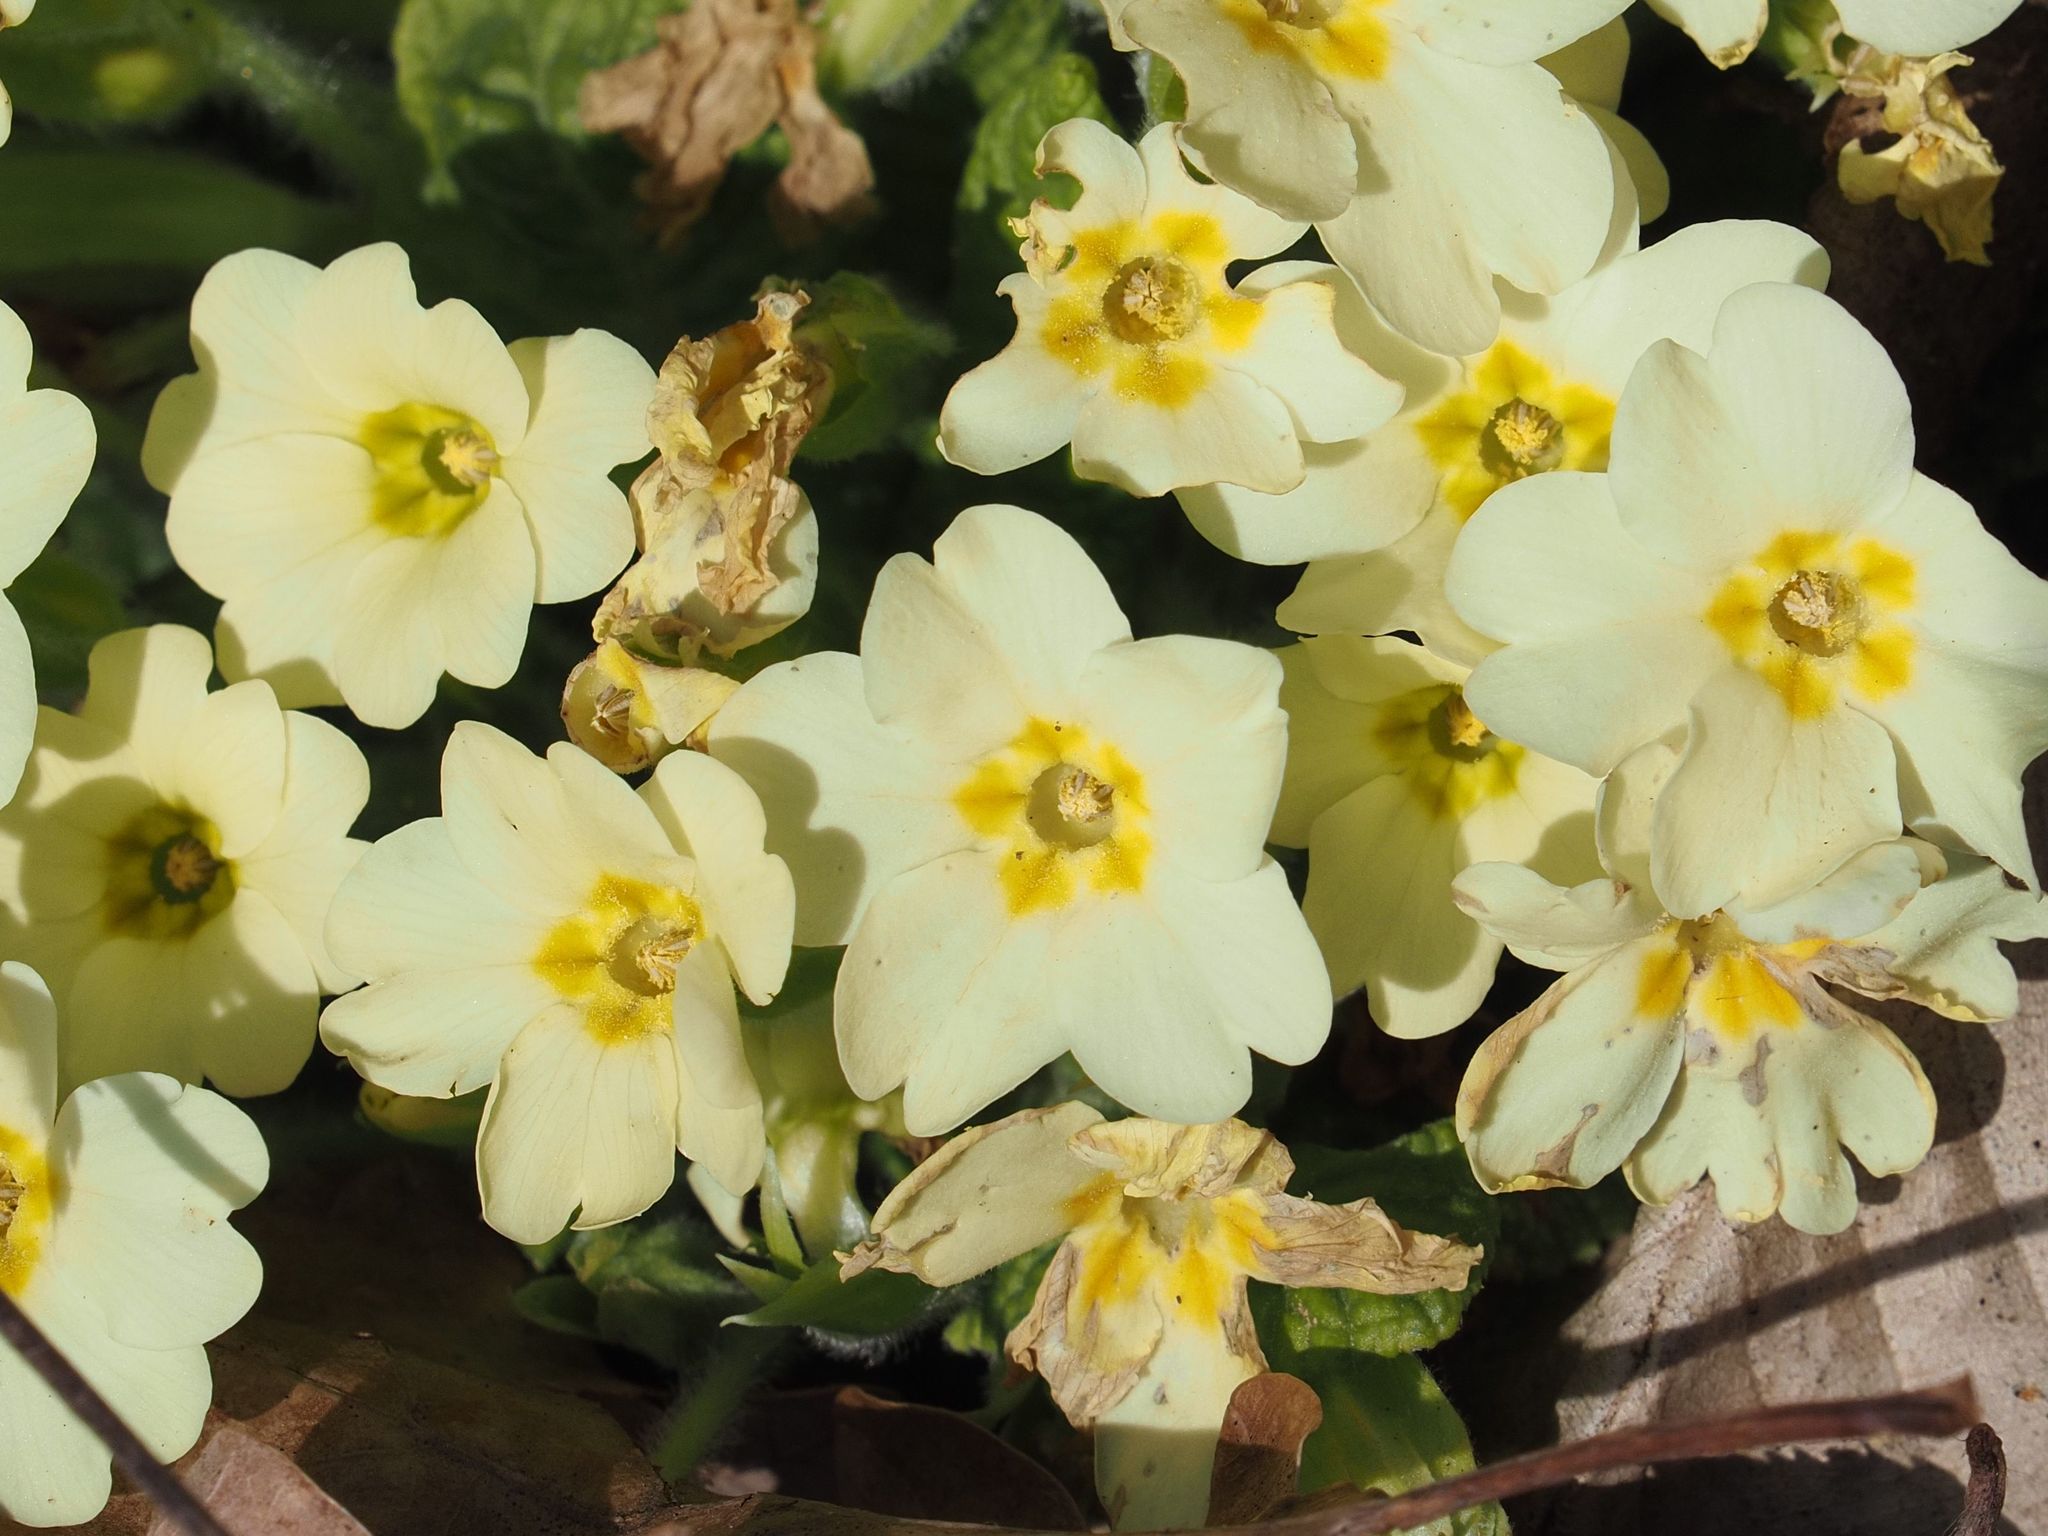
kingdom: Plantae
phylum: Tracheophyta
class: Magnoliopsida
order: Ericales
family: Primulaceae
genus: Primula
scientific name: Primula vulgaris
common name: Primrose
